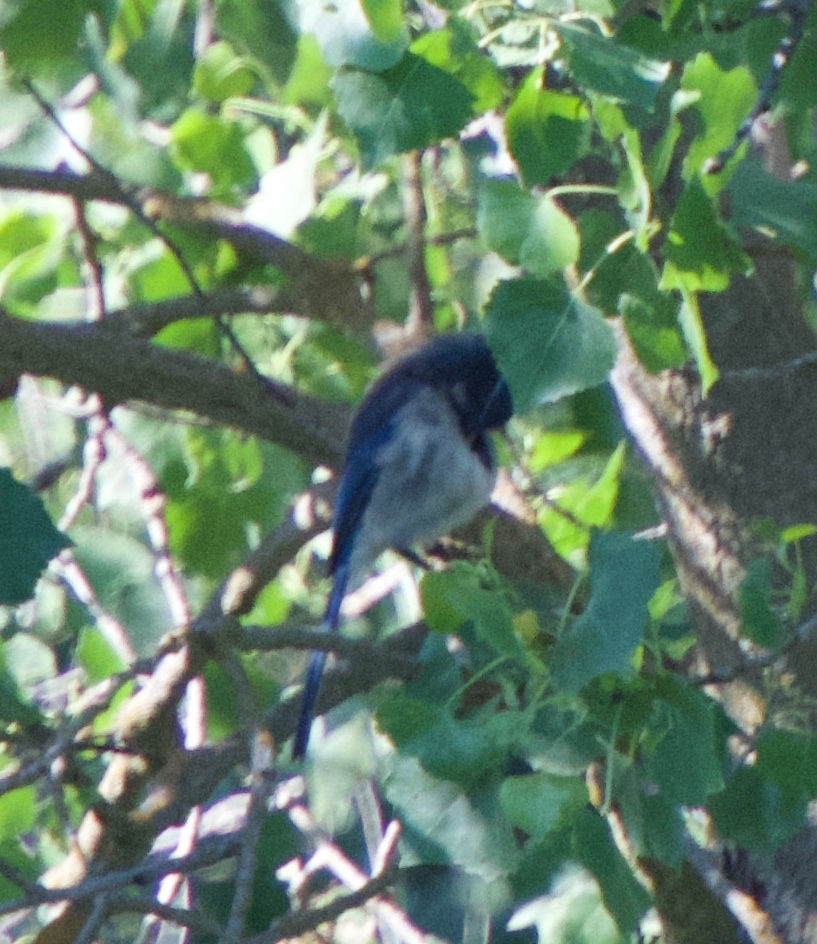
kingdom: Animalia
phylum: Chordata
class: Aves
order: Passeriformes
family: Corvidae
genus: Aphelocoma
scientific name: Aphelocoma californica
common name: California scrub-jay
